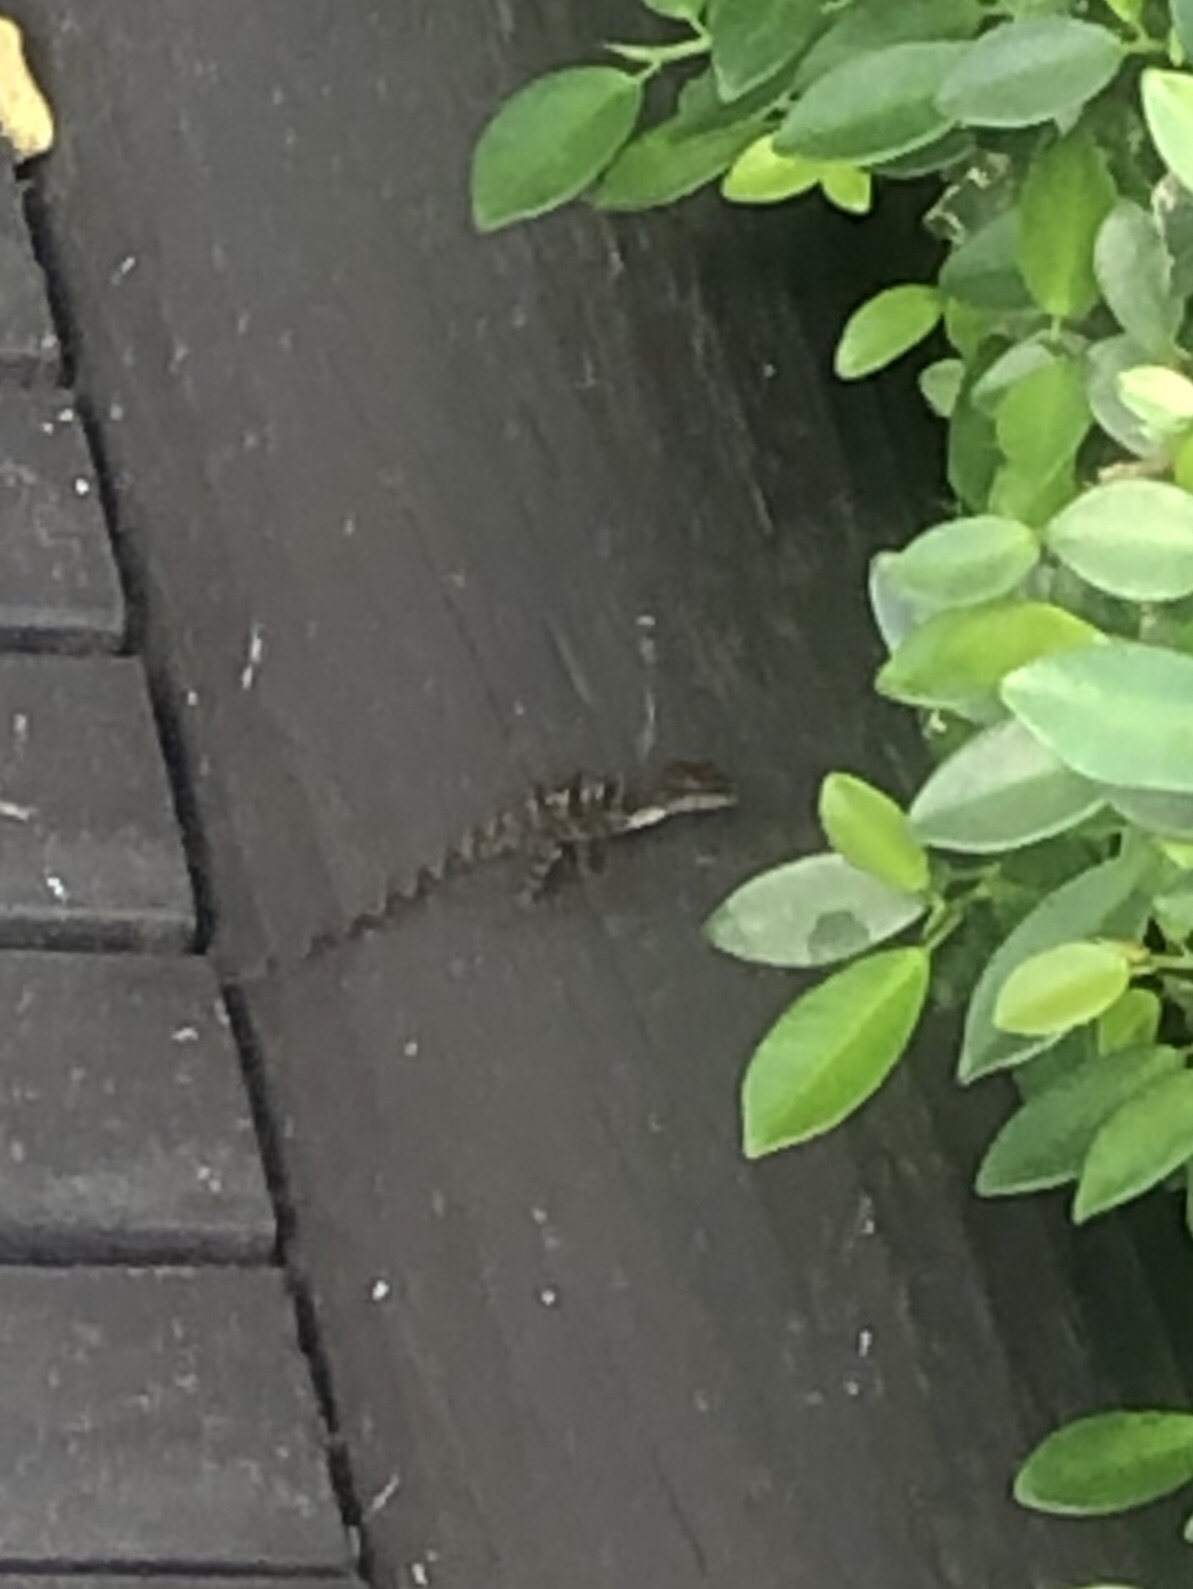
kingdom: Animalia
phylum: Chordata
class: Squamata
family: Dactyloidae
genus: Anolis
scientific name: Anolis lineatopus
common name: Stripefoot anole
